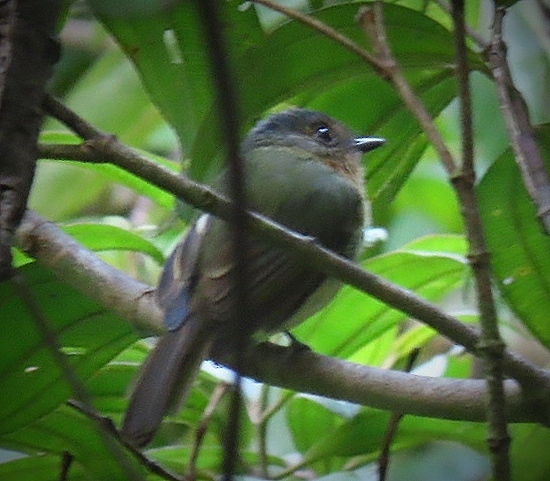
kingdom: Animalia
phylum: Chordata
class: Aves
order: Passeriformes
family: Tyrannidae
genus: Leptopogon
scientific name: Leptopogon rufipectus
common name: Rufous-breasted flycatcher
